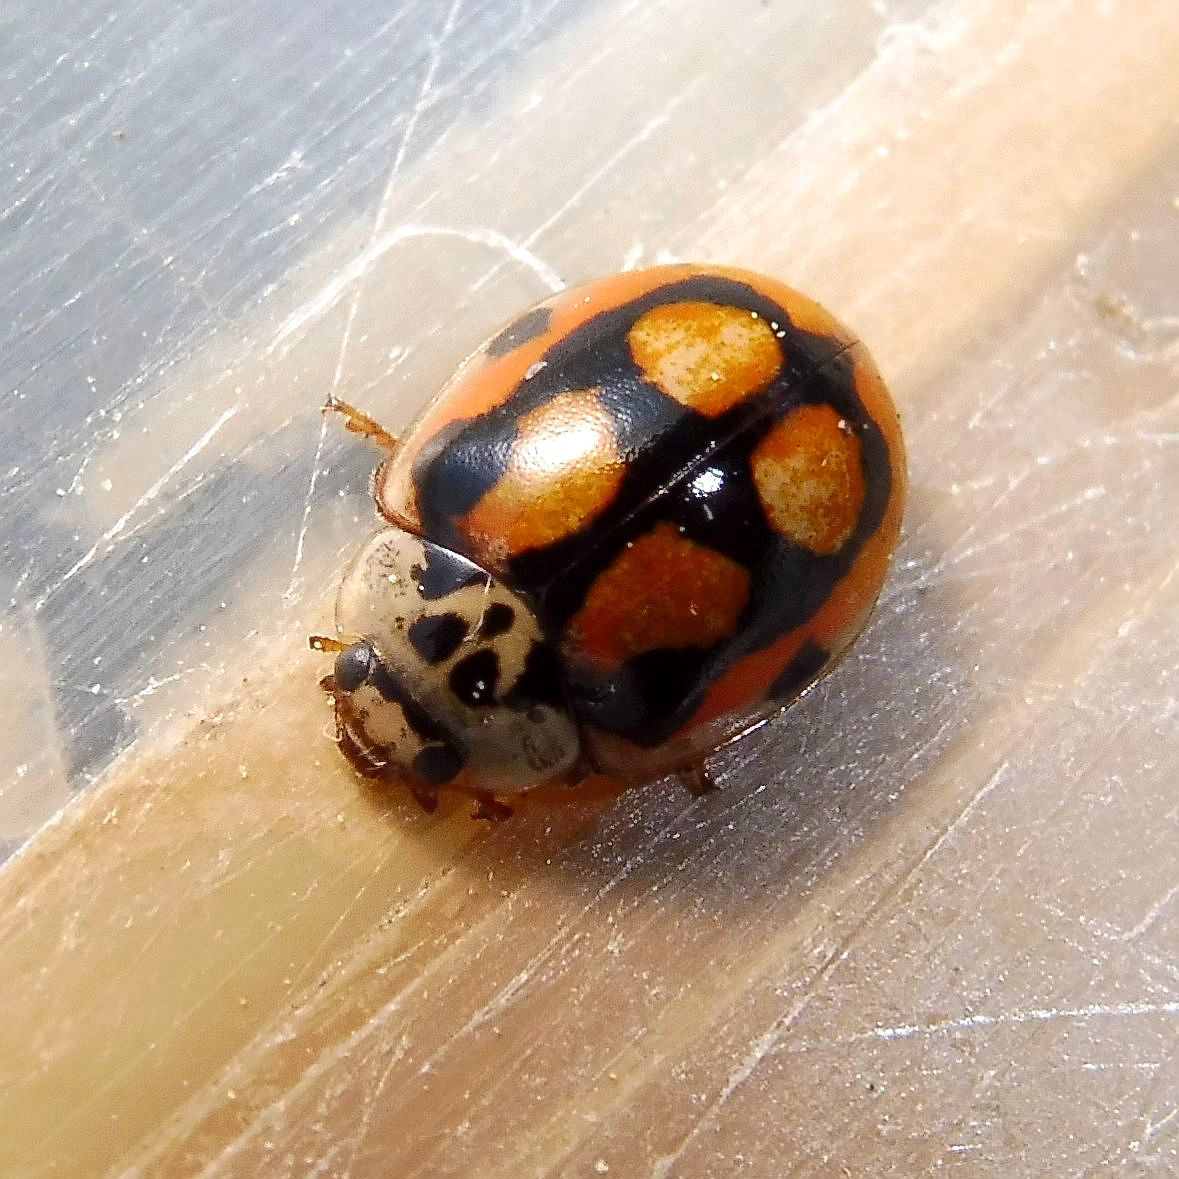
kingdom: Animalia
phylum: Arthropoda
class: Insecta
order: Coleoptera
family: Coccinellidae
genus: Adalia
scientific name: Adalia decempunctata
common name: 10-spot ladybird
